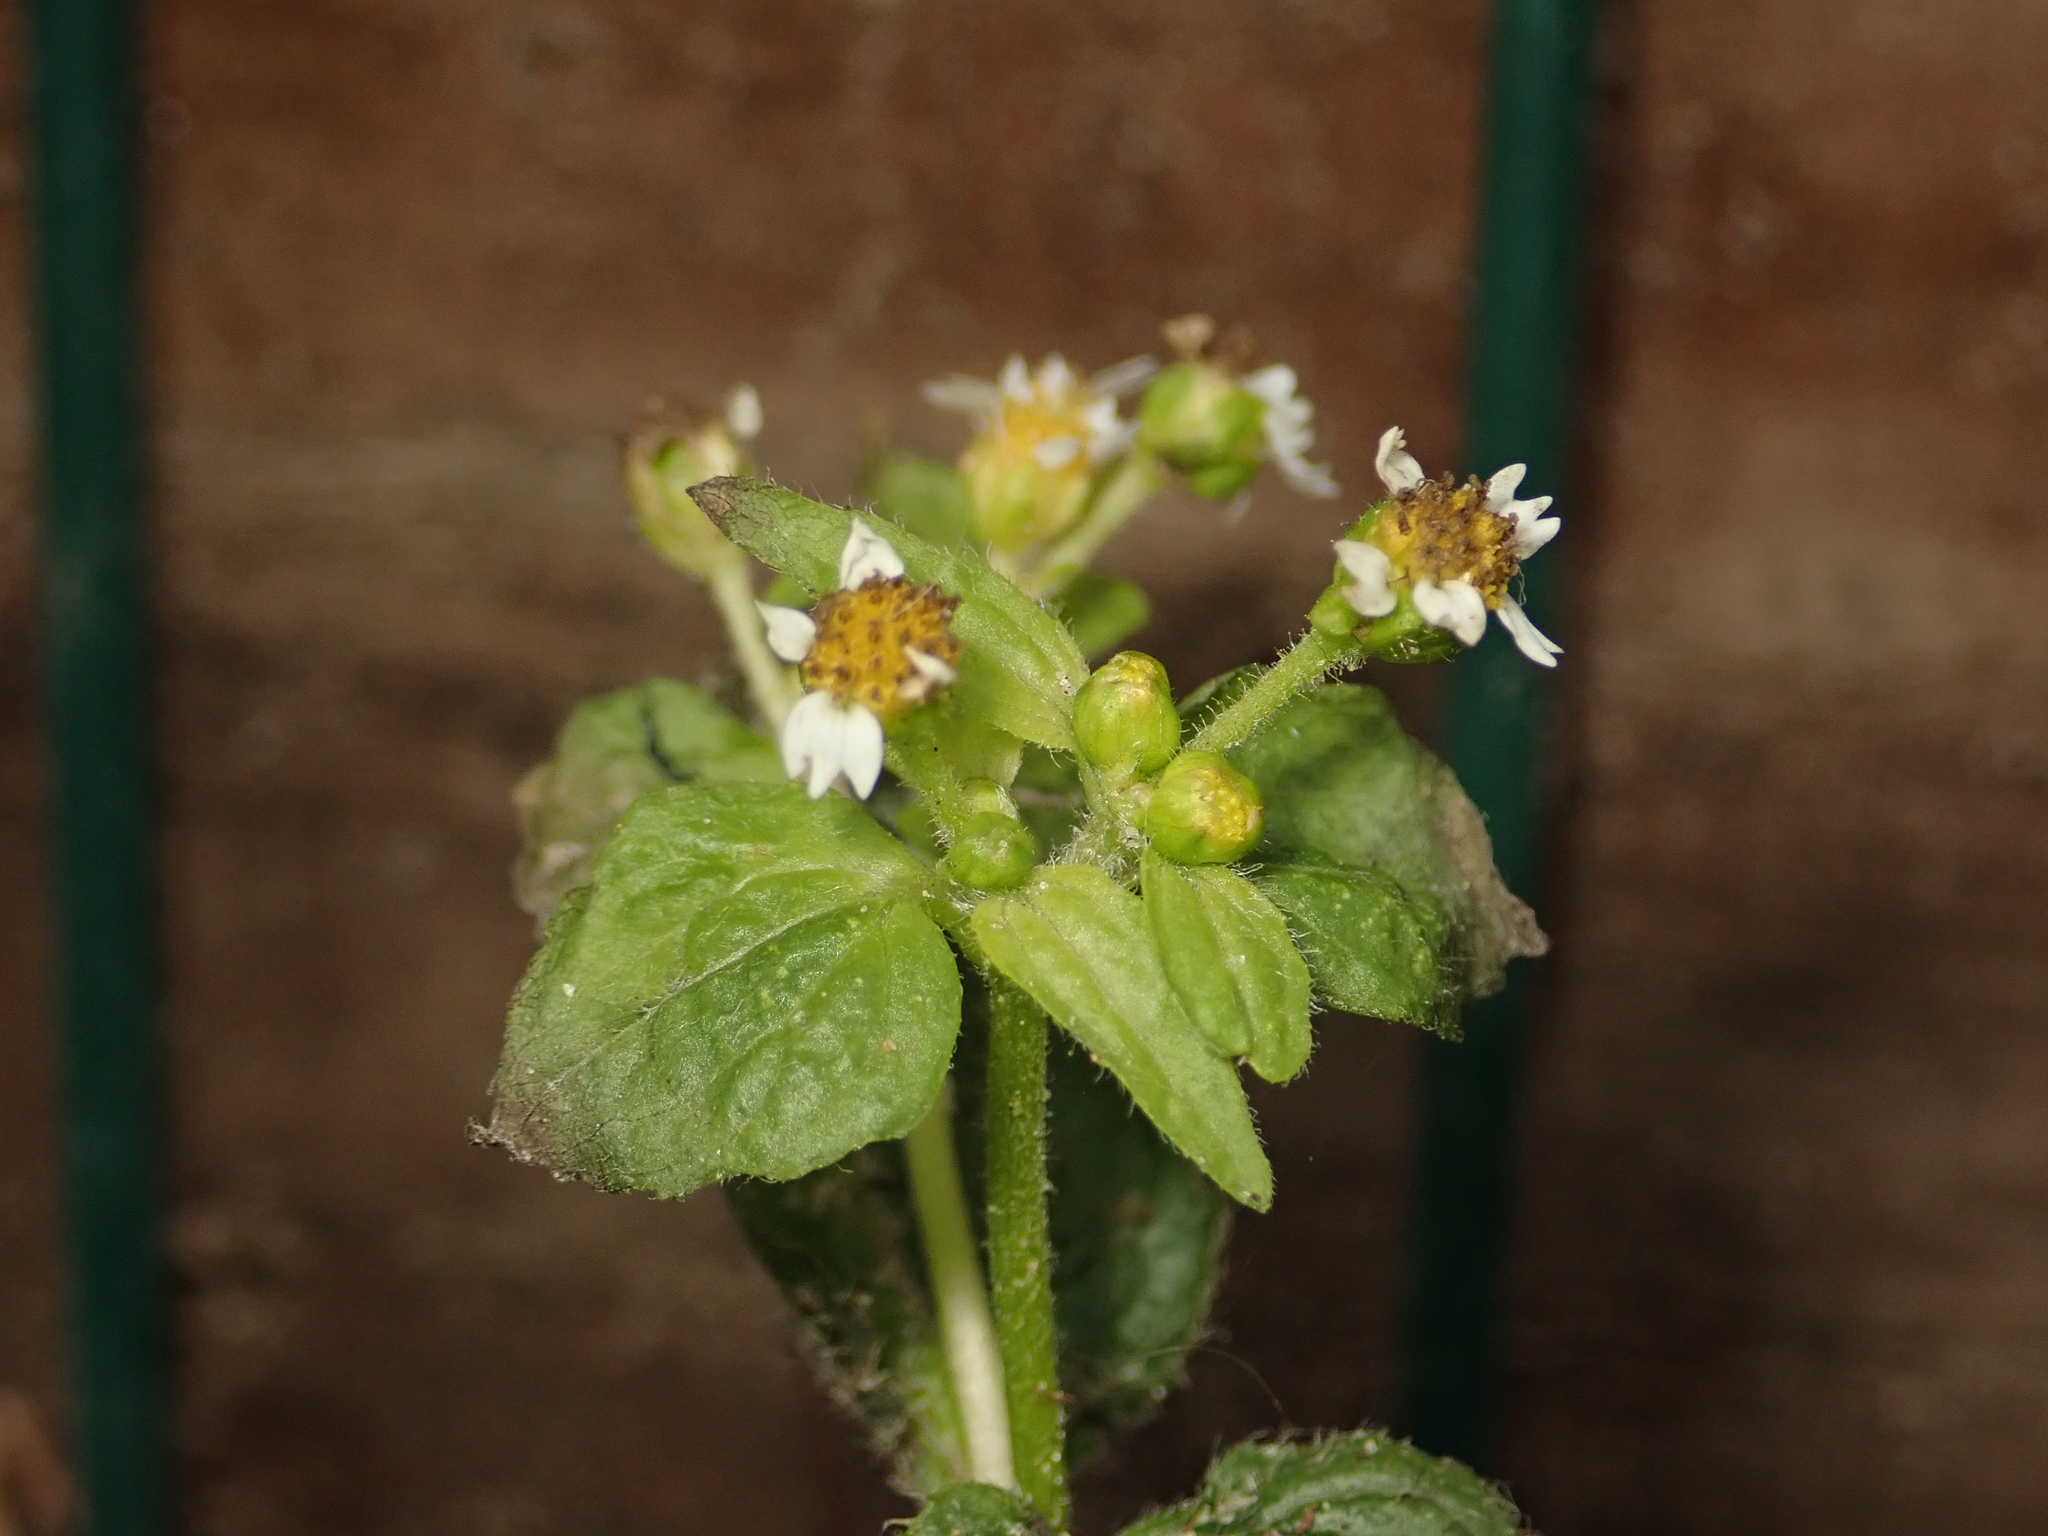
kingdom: Plantae
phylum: Tracheophyta
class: Magnoliopsida
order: Asterales
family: Asteraceae
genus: Galinsoga
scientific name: Galinsoga quadriradiata
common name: Shaggy soldier
